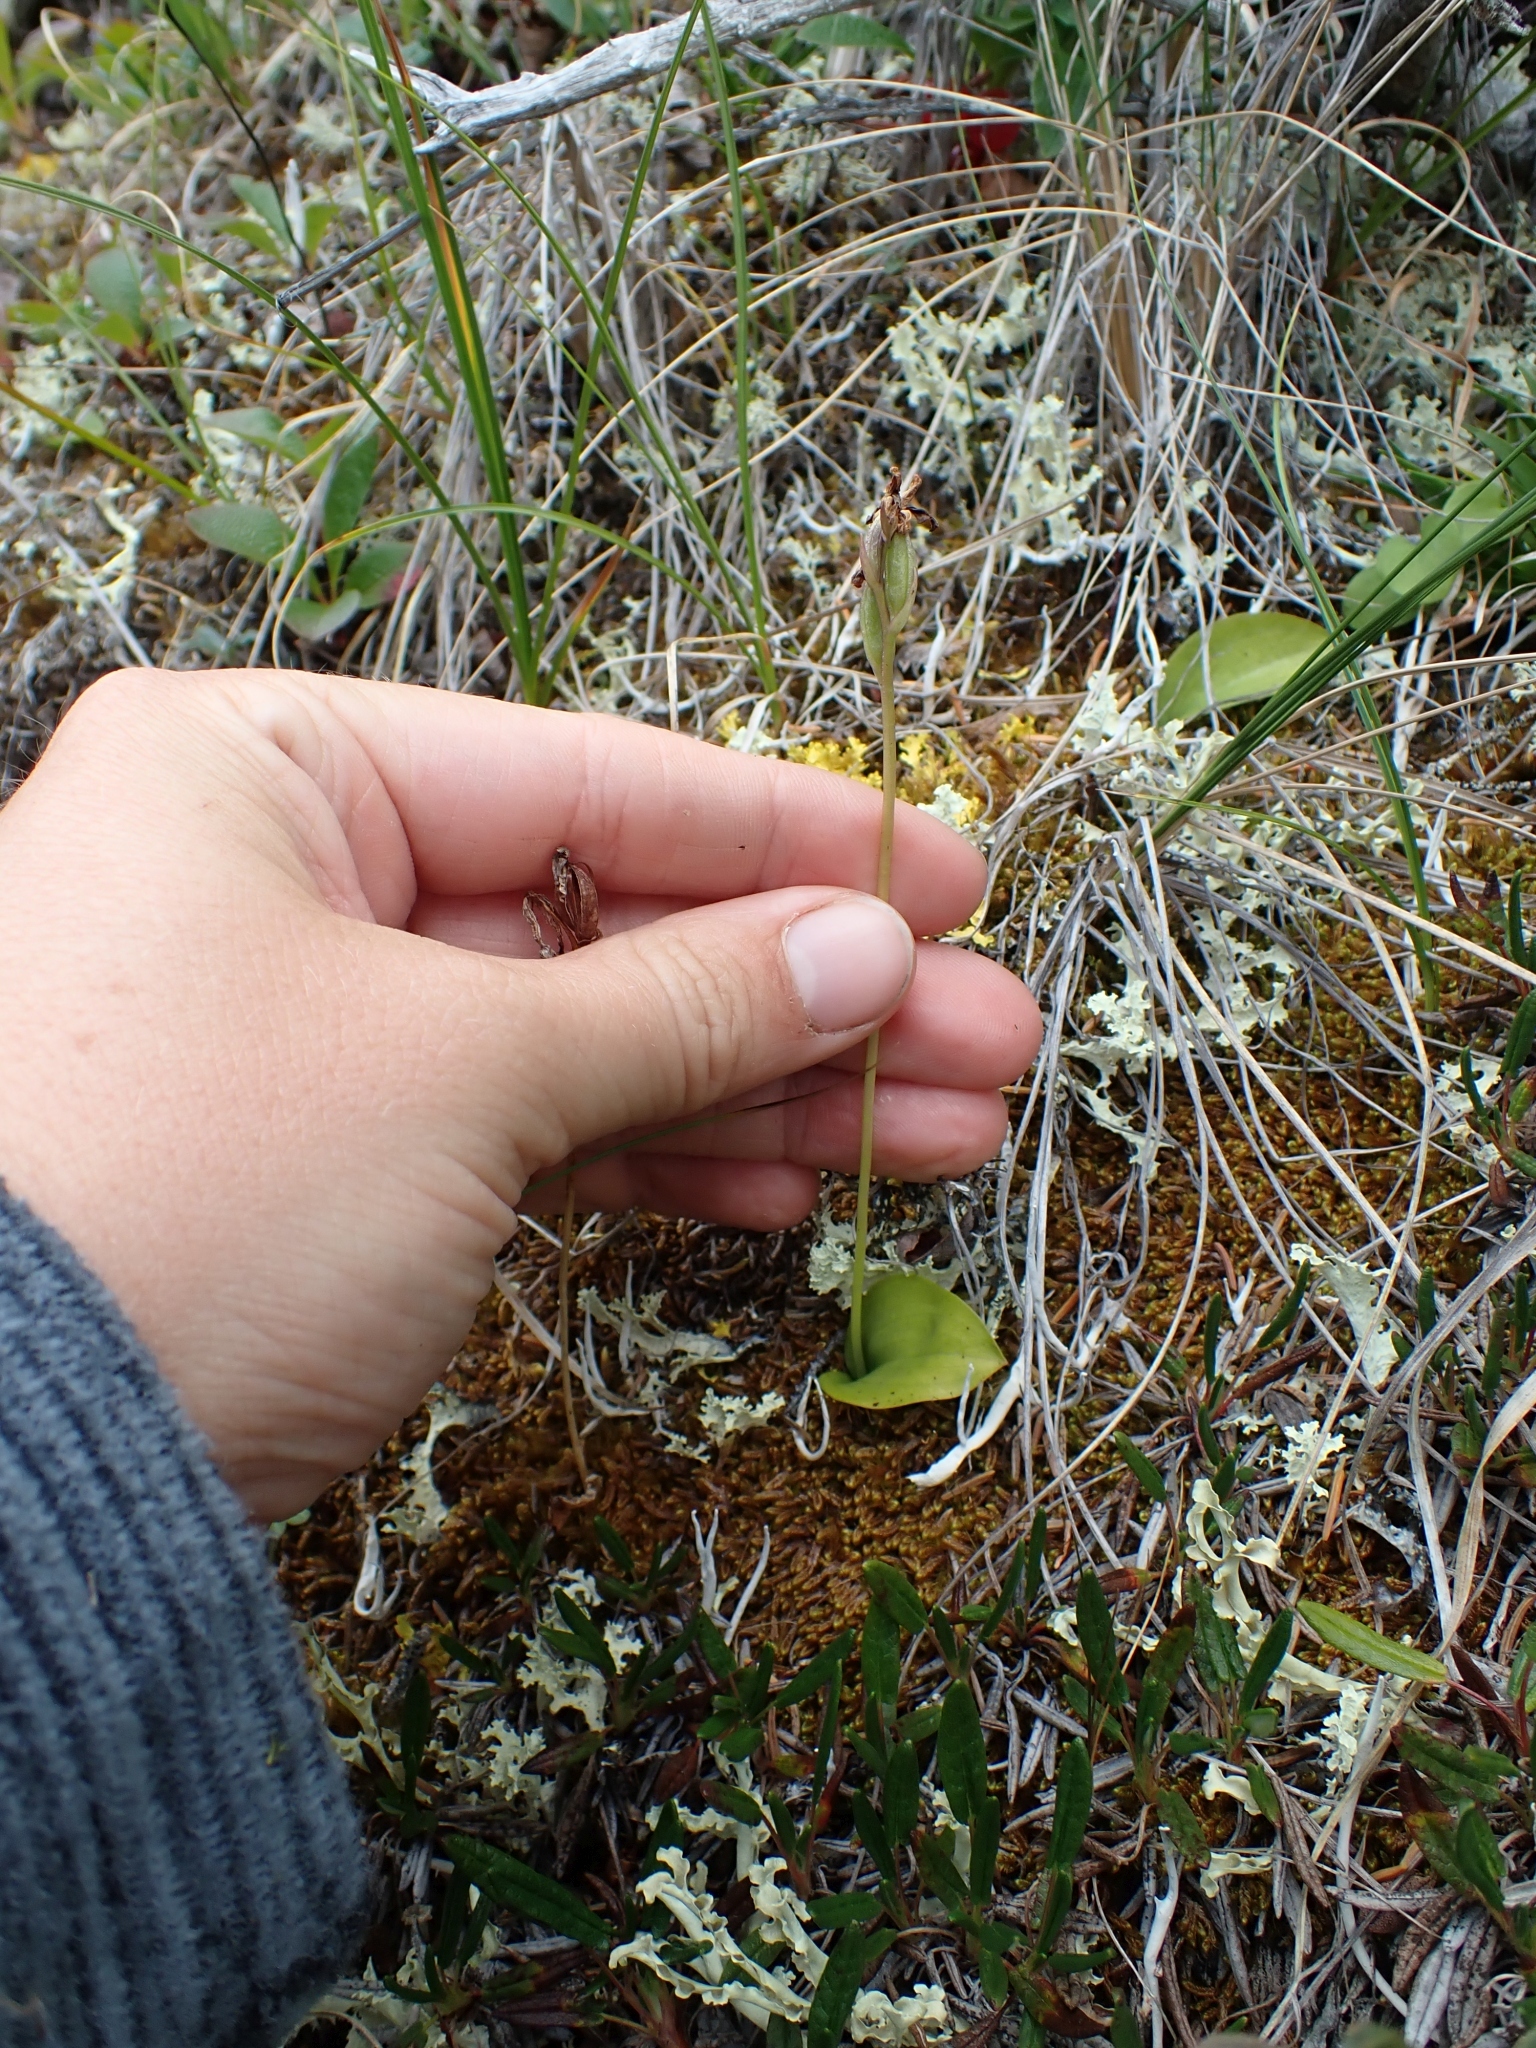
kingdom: Plantae
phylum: Tracheophyta
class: Liliopsida
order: Asparagales
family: Orchidaceae
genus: Galearis
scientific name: Galearis rotundifolia
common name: One-leaved orchis
